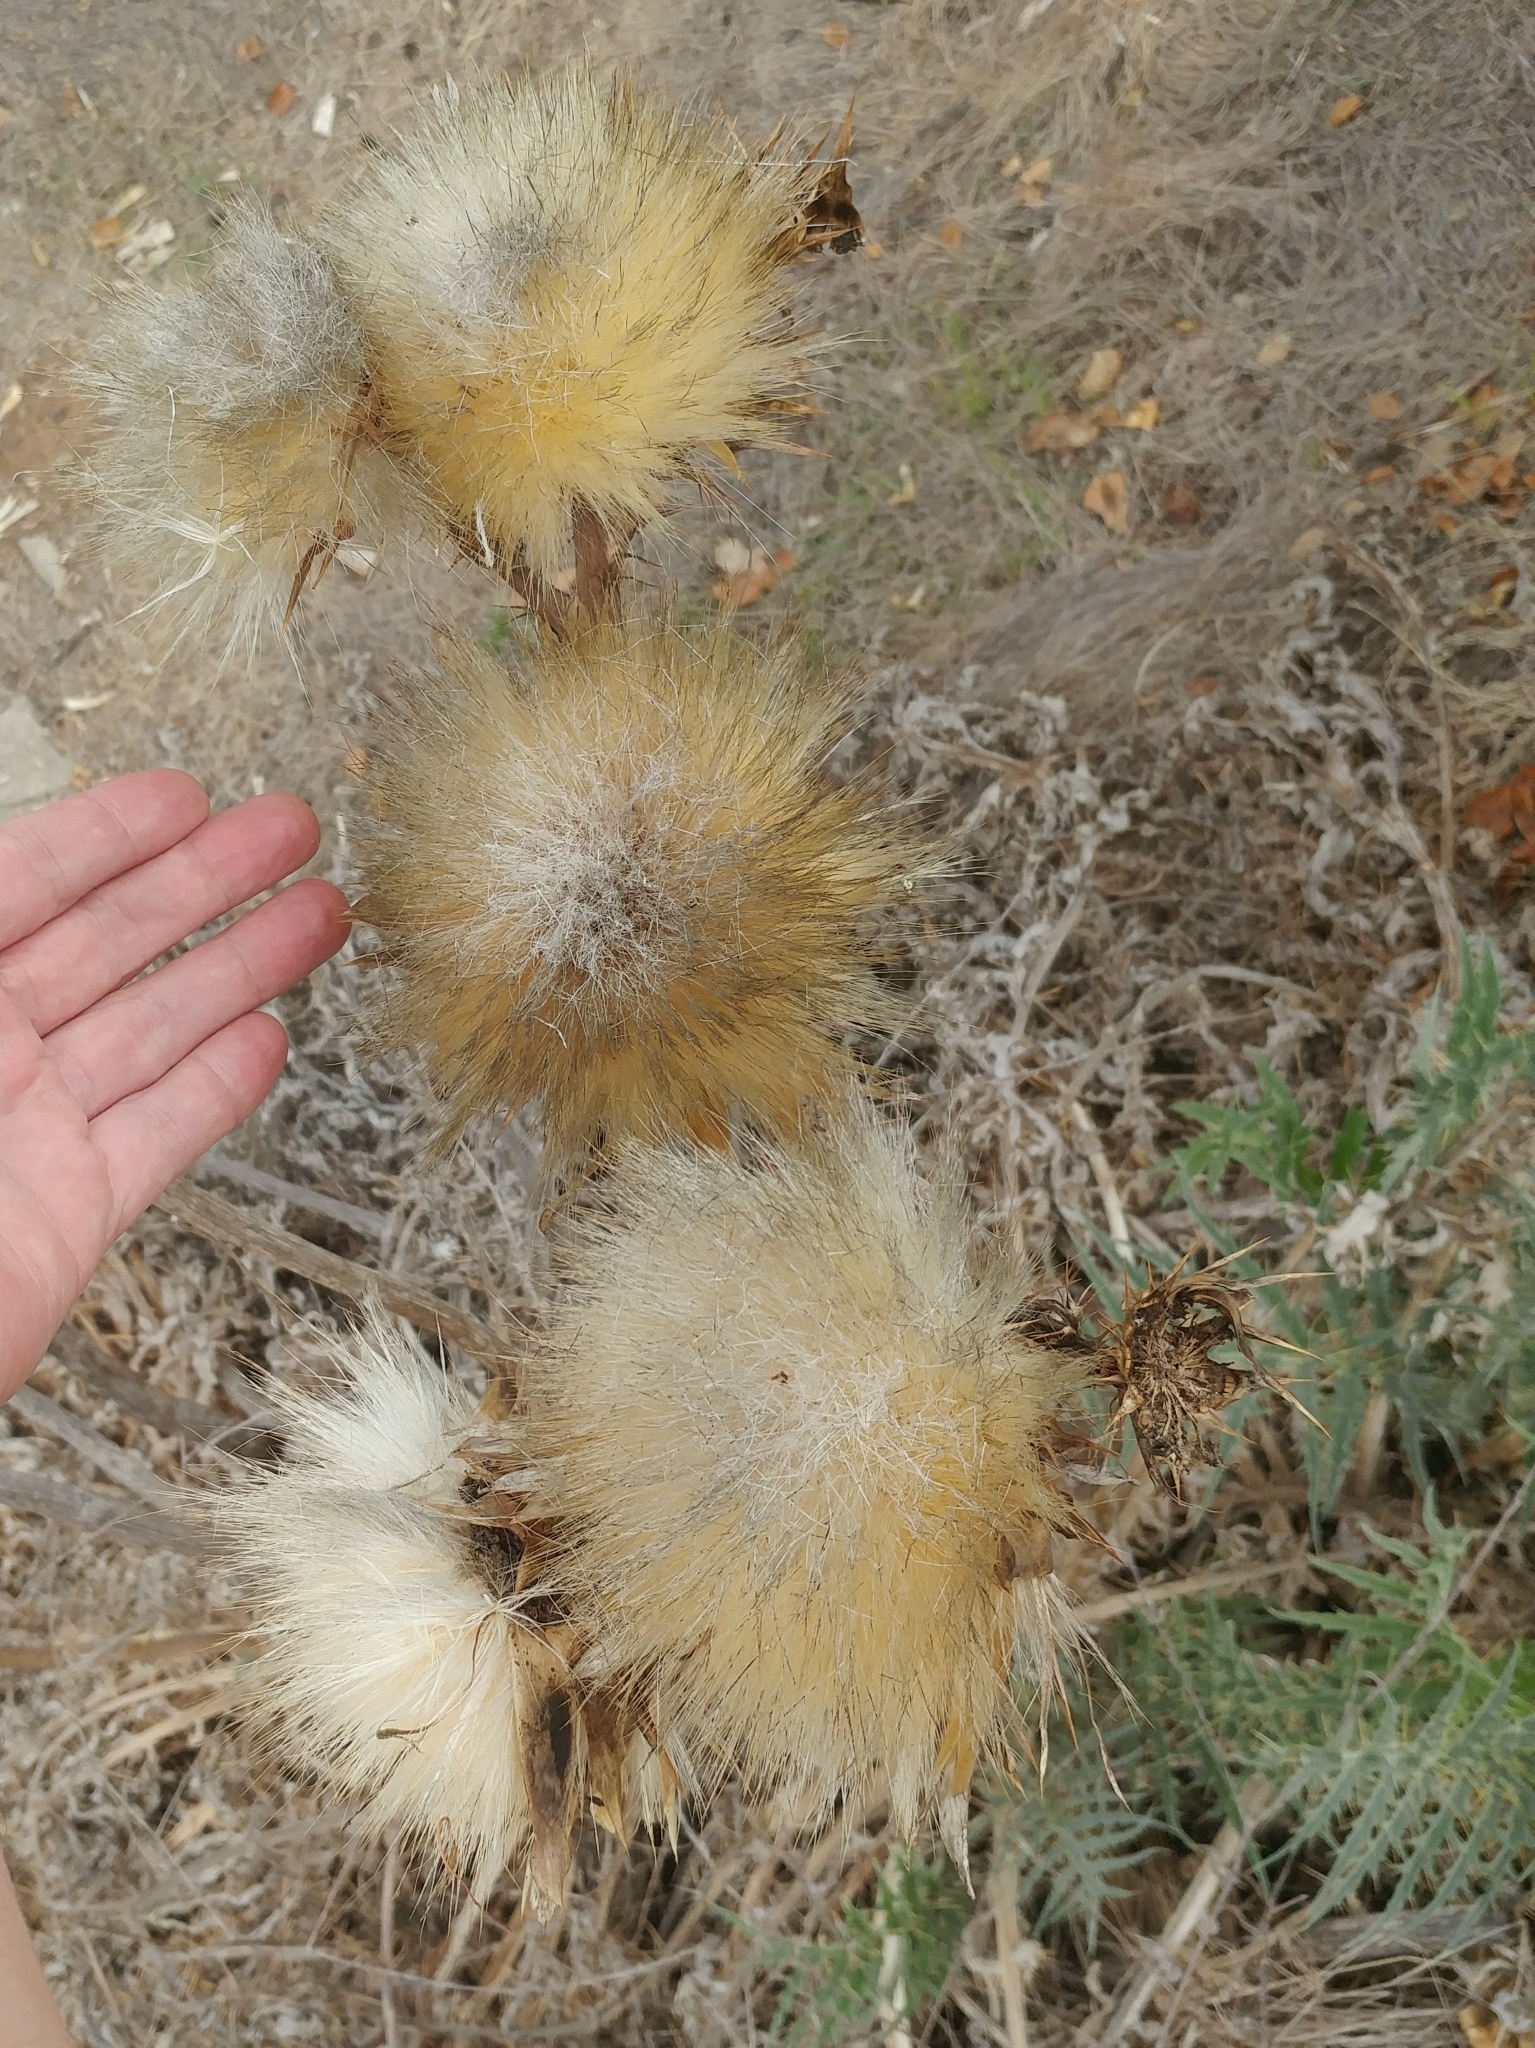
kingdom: Plantae
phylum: Tracheophyta
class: Magnoliopsida
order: Asterales
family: Asteraceae
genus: Cynara
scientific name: Cynara cardunculus
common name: Globe artichoke
